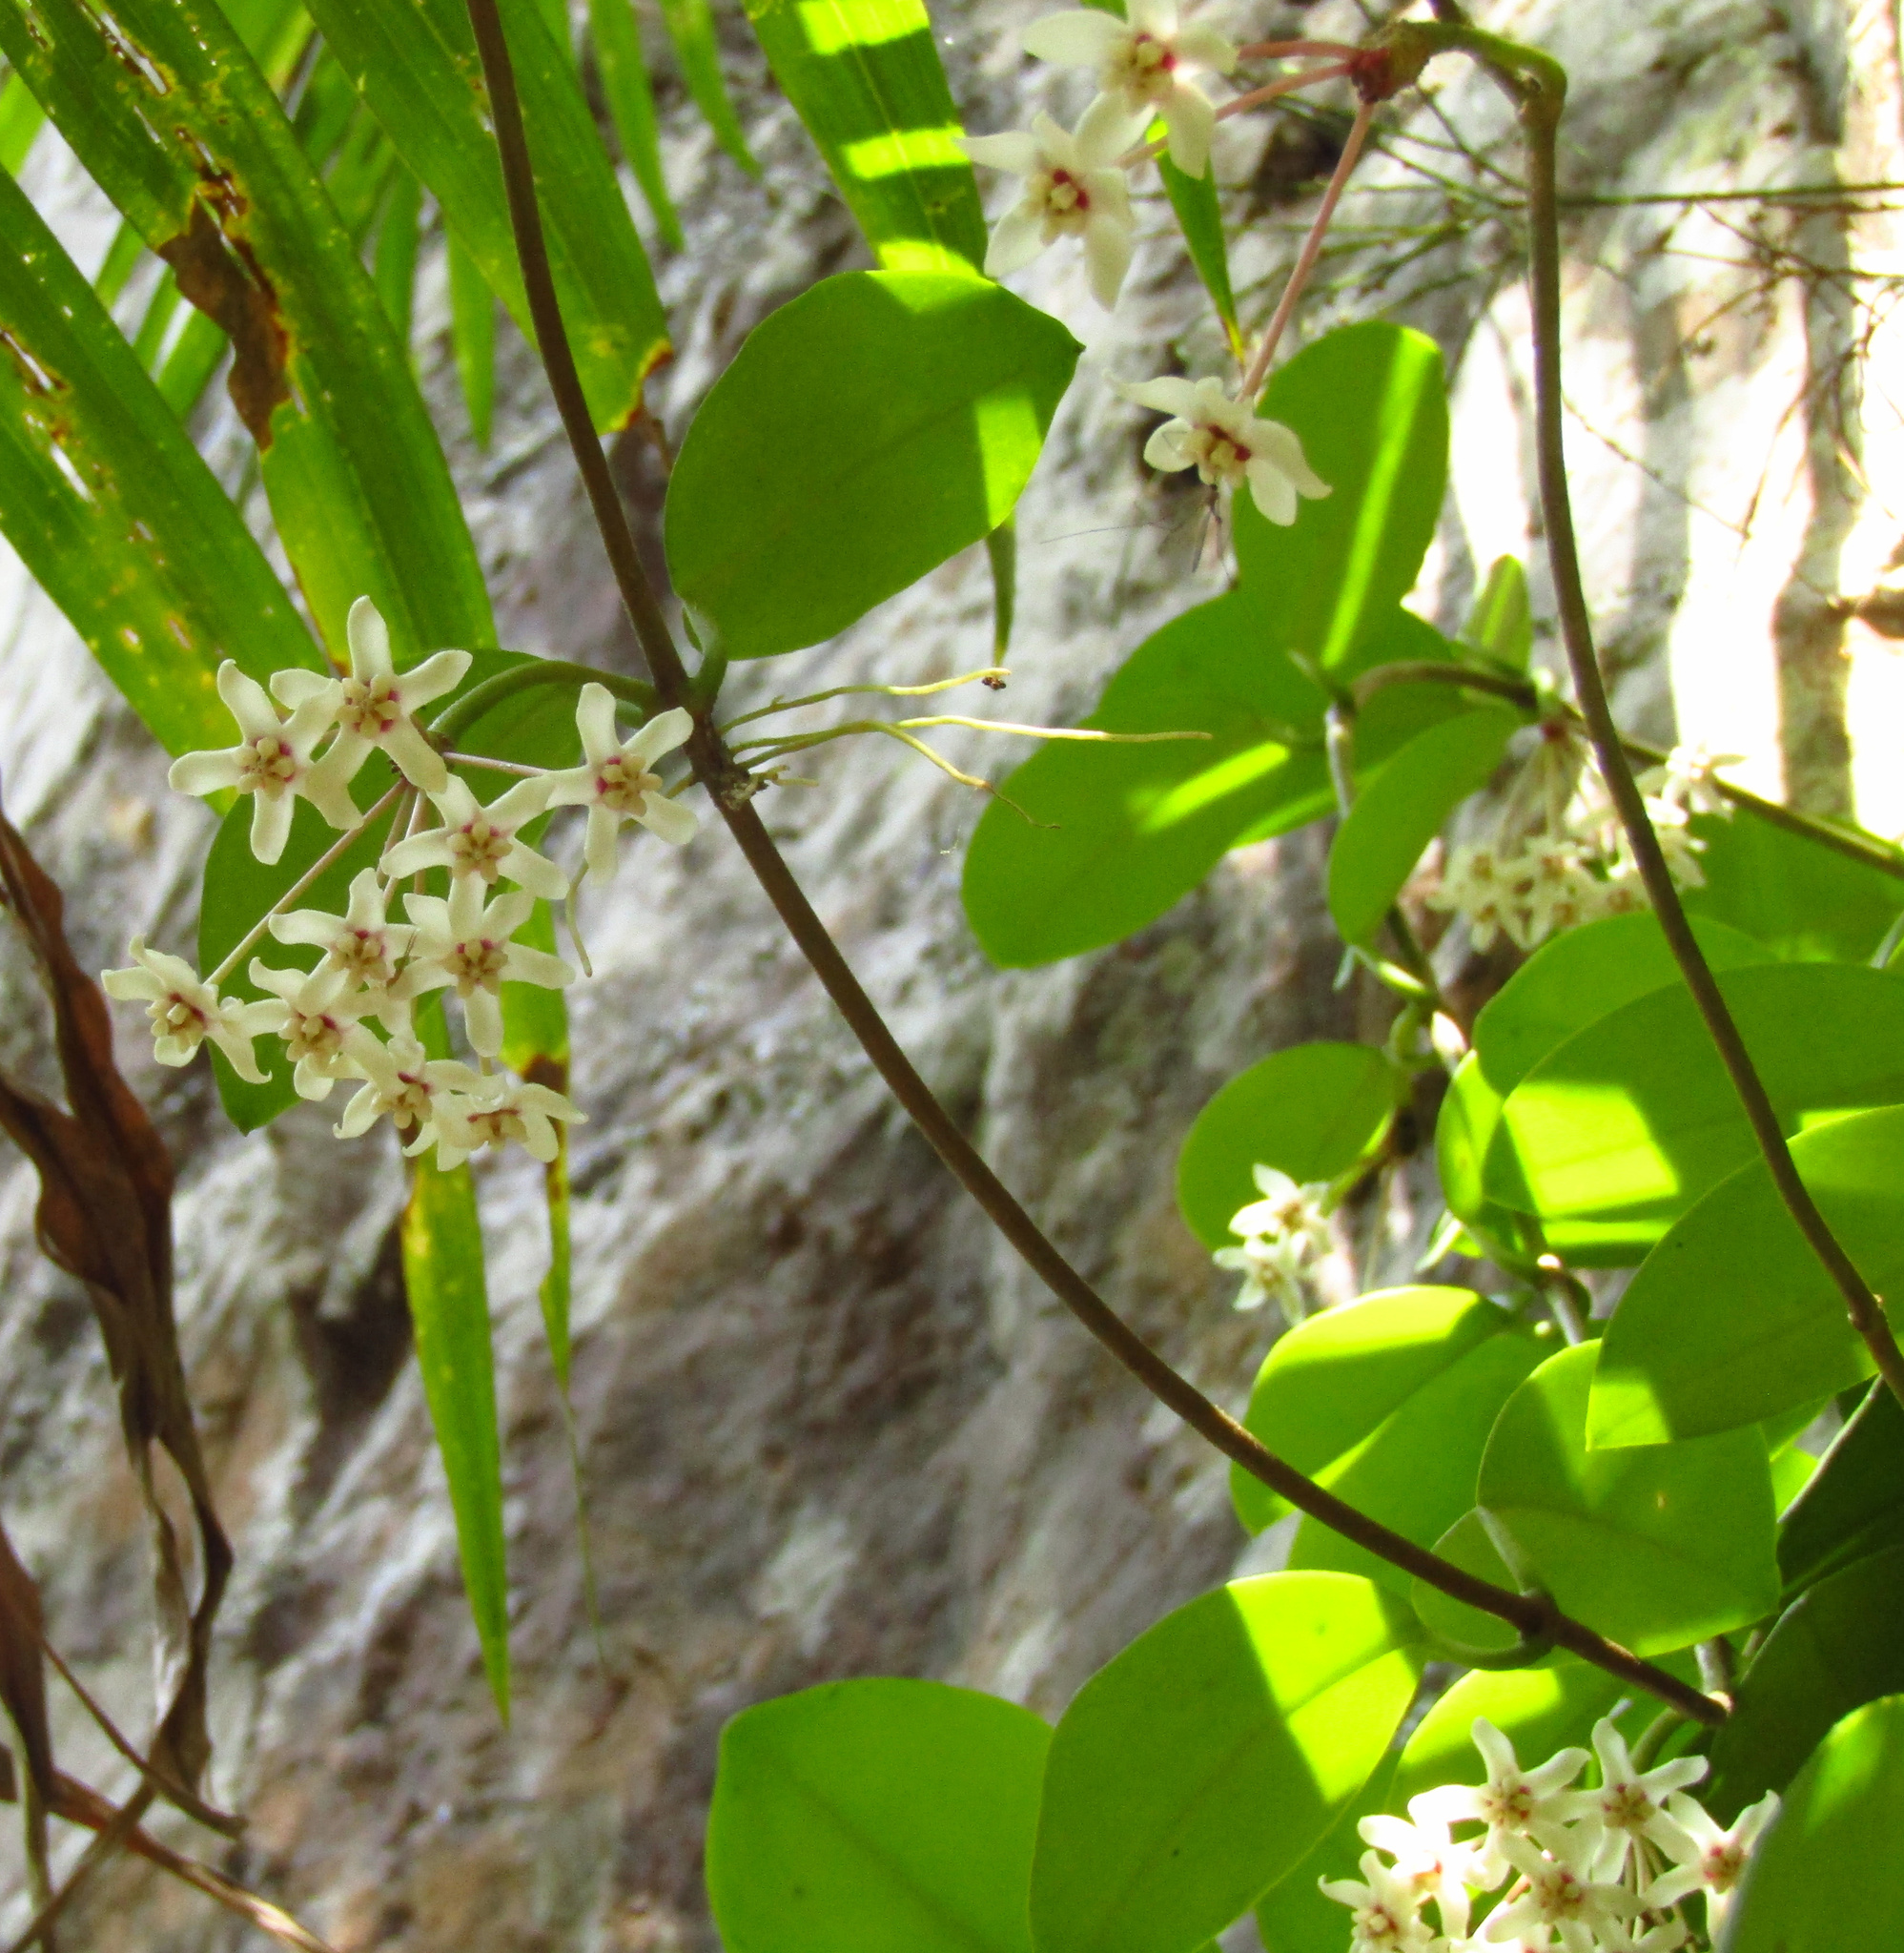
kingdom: Plantae
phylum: Tracheophyta
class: Magnoliopsida
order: Gentianales
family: Apocynaceae
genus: Hoya
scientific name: Hoya australis
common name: Wax flower
